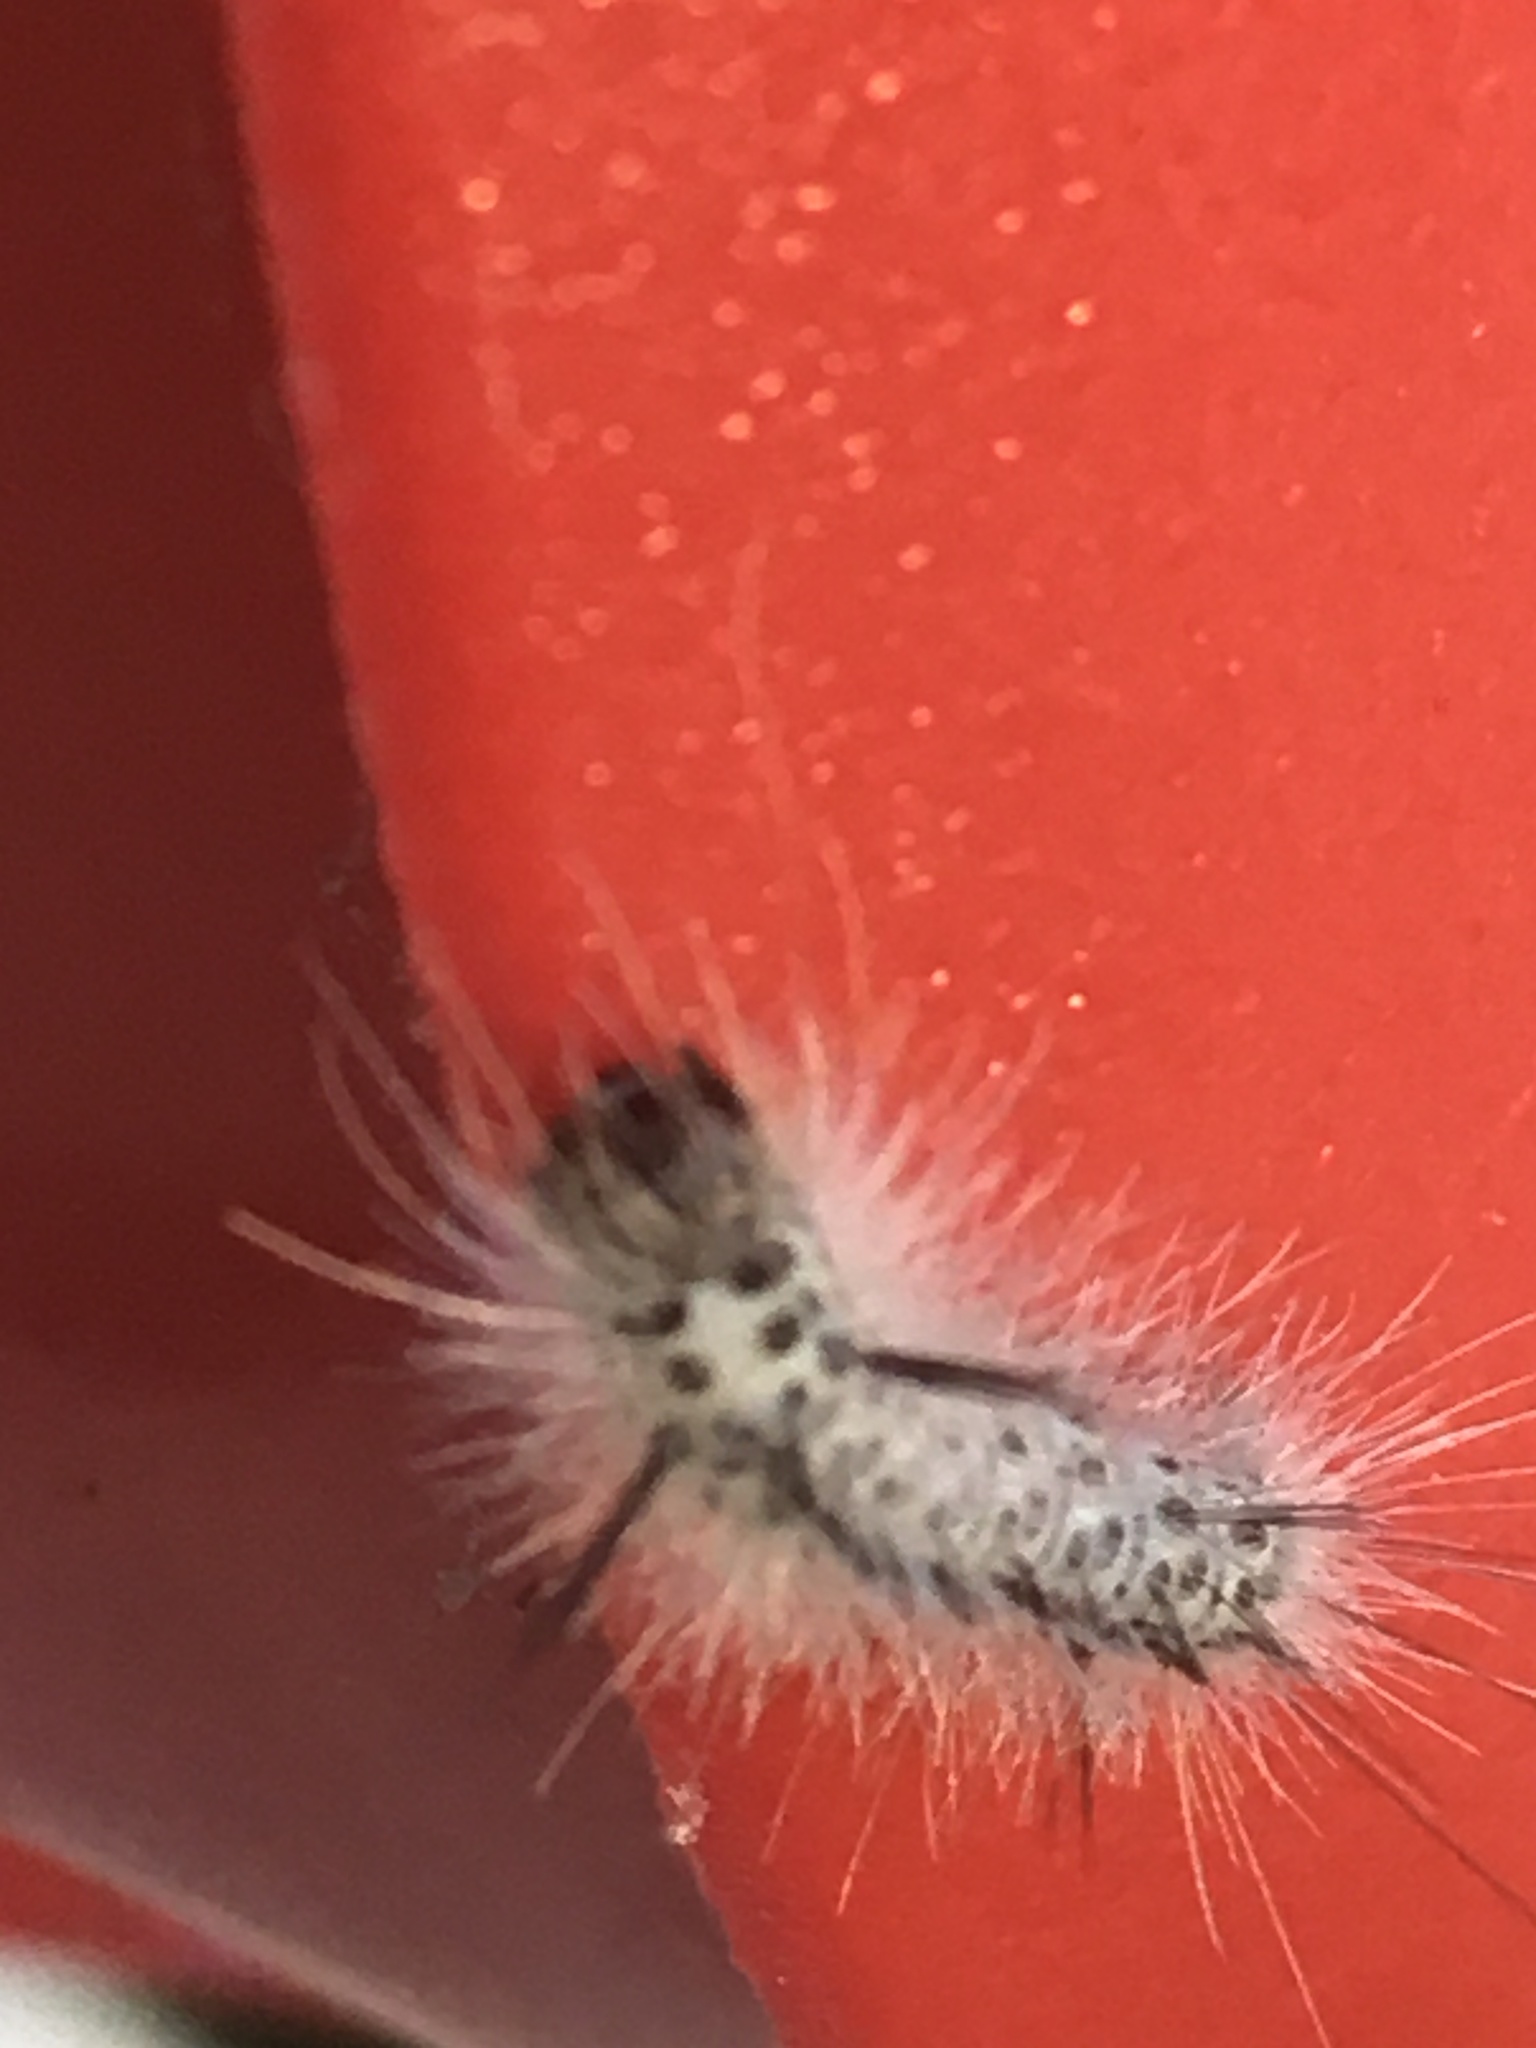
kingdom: Animalia
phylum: Arthropoda
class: Insecta
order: Lepidoptera
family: Erebidae
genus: Lophocampa
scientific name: Lophocampa caryae
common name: Hickory tussock moth
